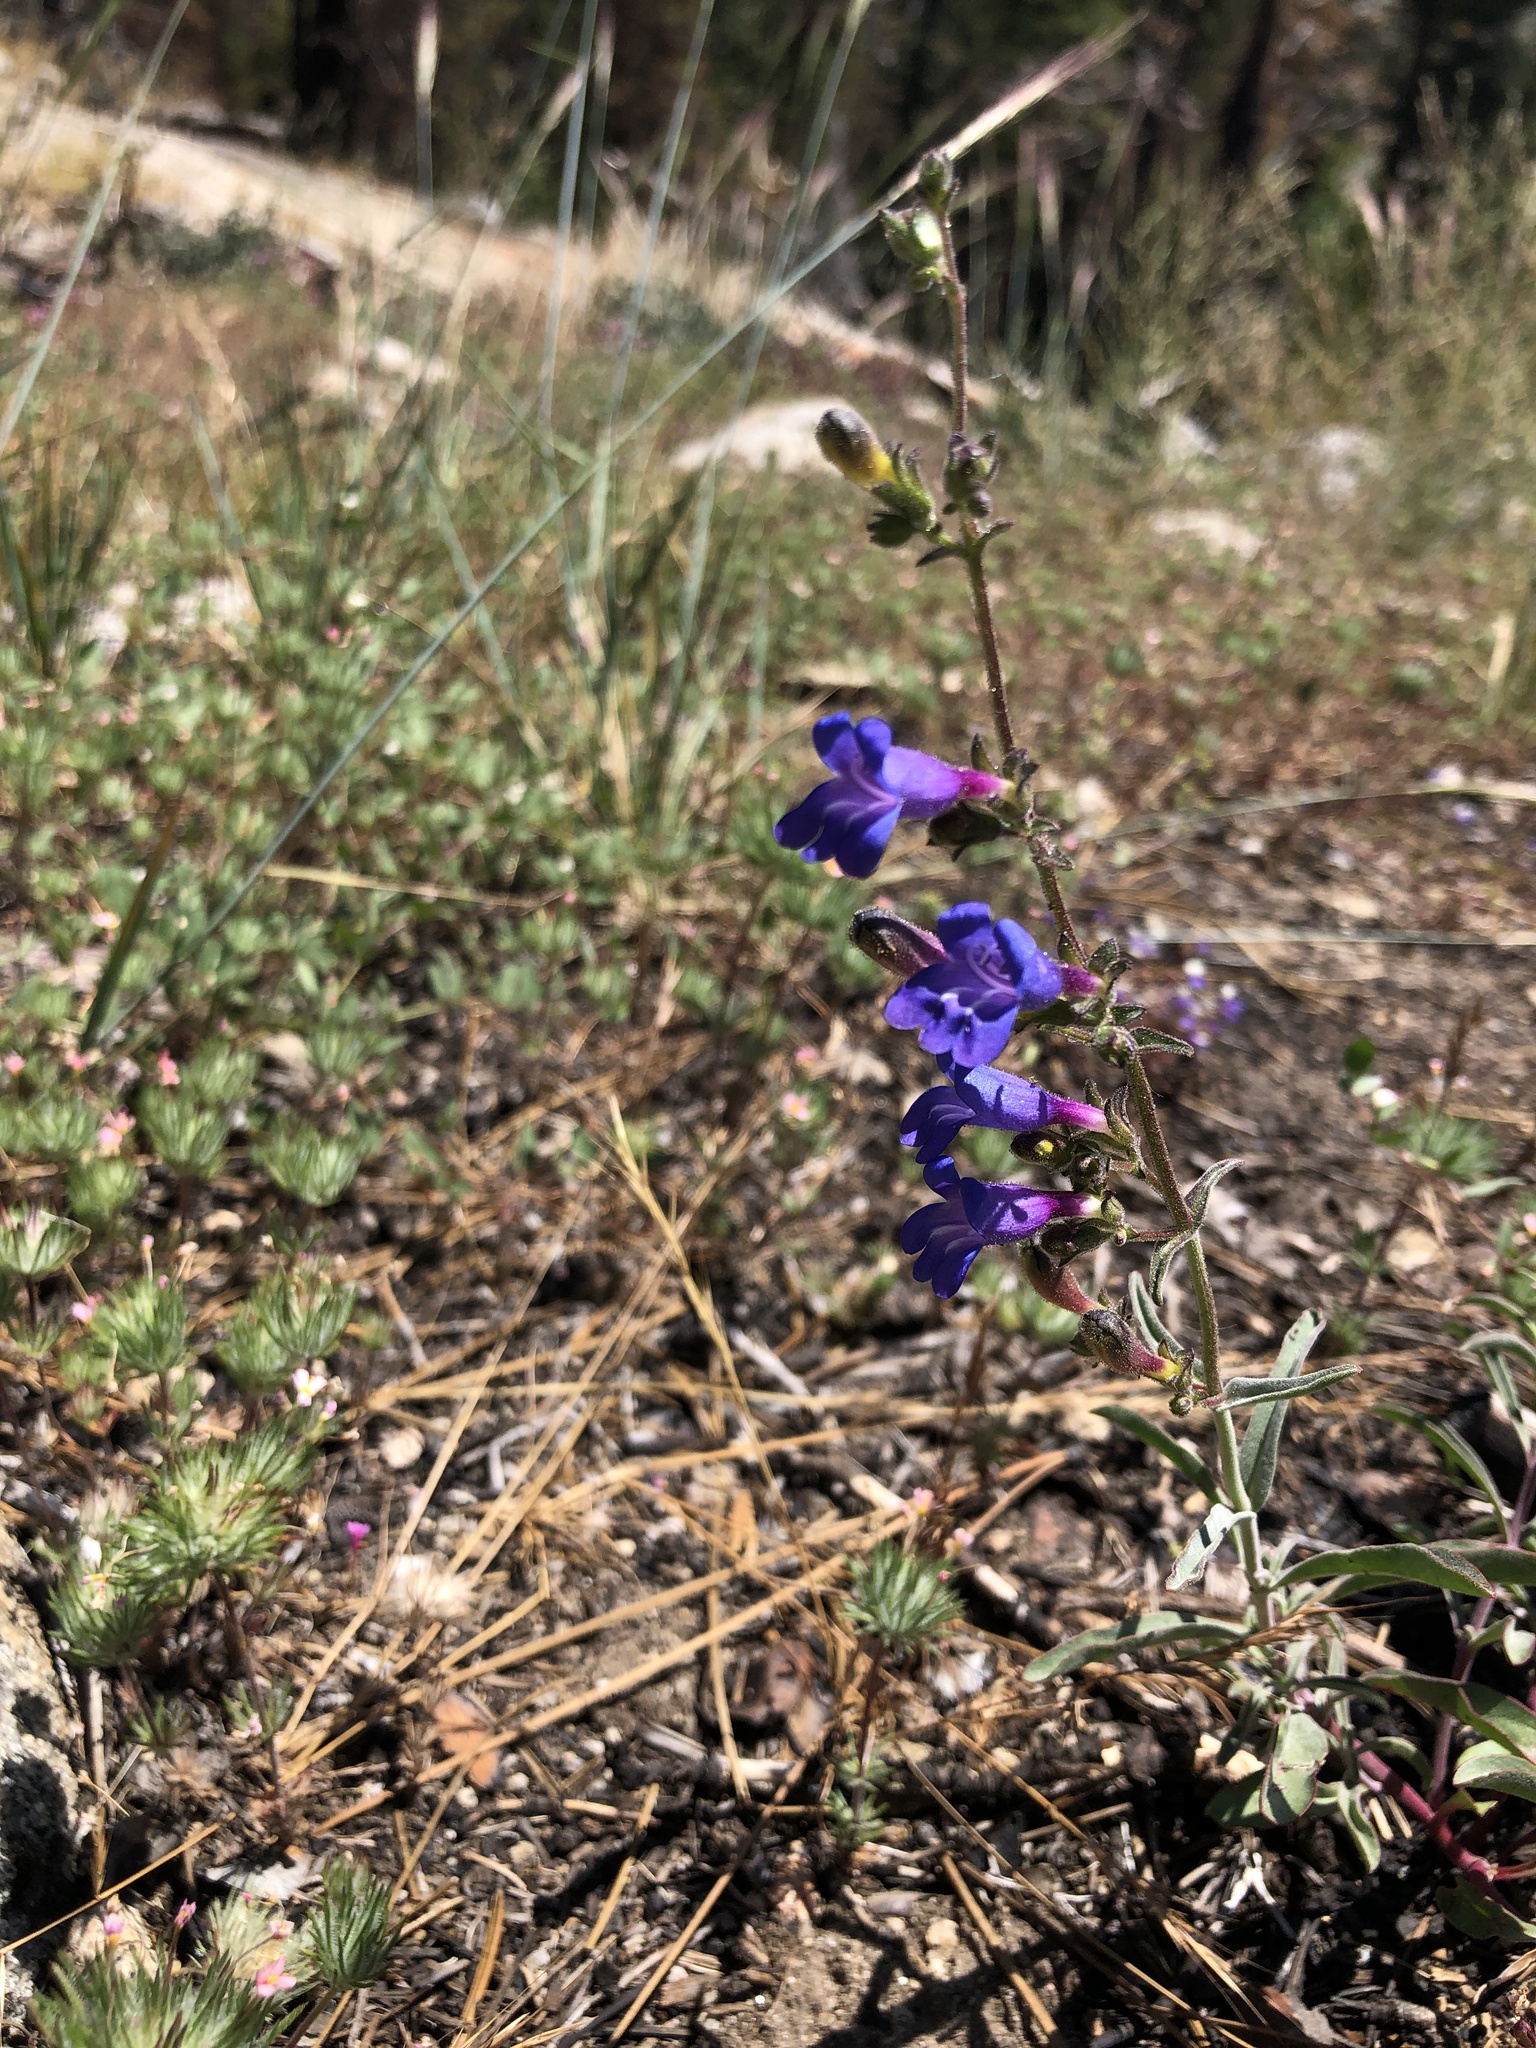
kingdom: Plantae
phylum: Tracheophyta
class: Magnoliopsida
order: Lamiales
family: Plantaginaceae
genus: Penstemon
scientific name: Penstemon laetus
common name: Gay penstemon
